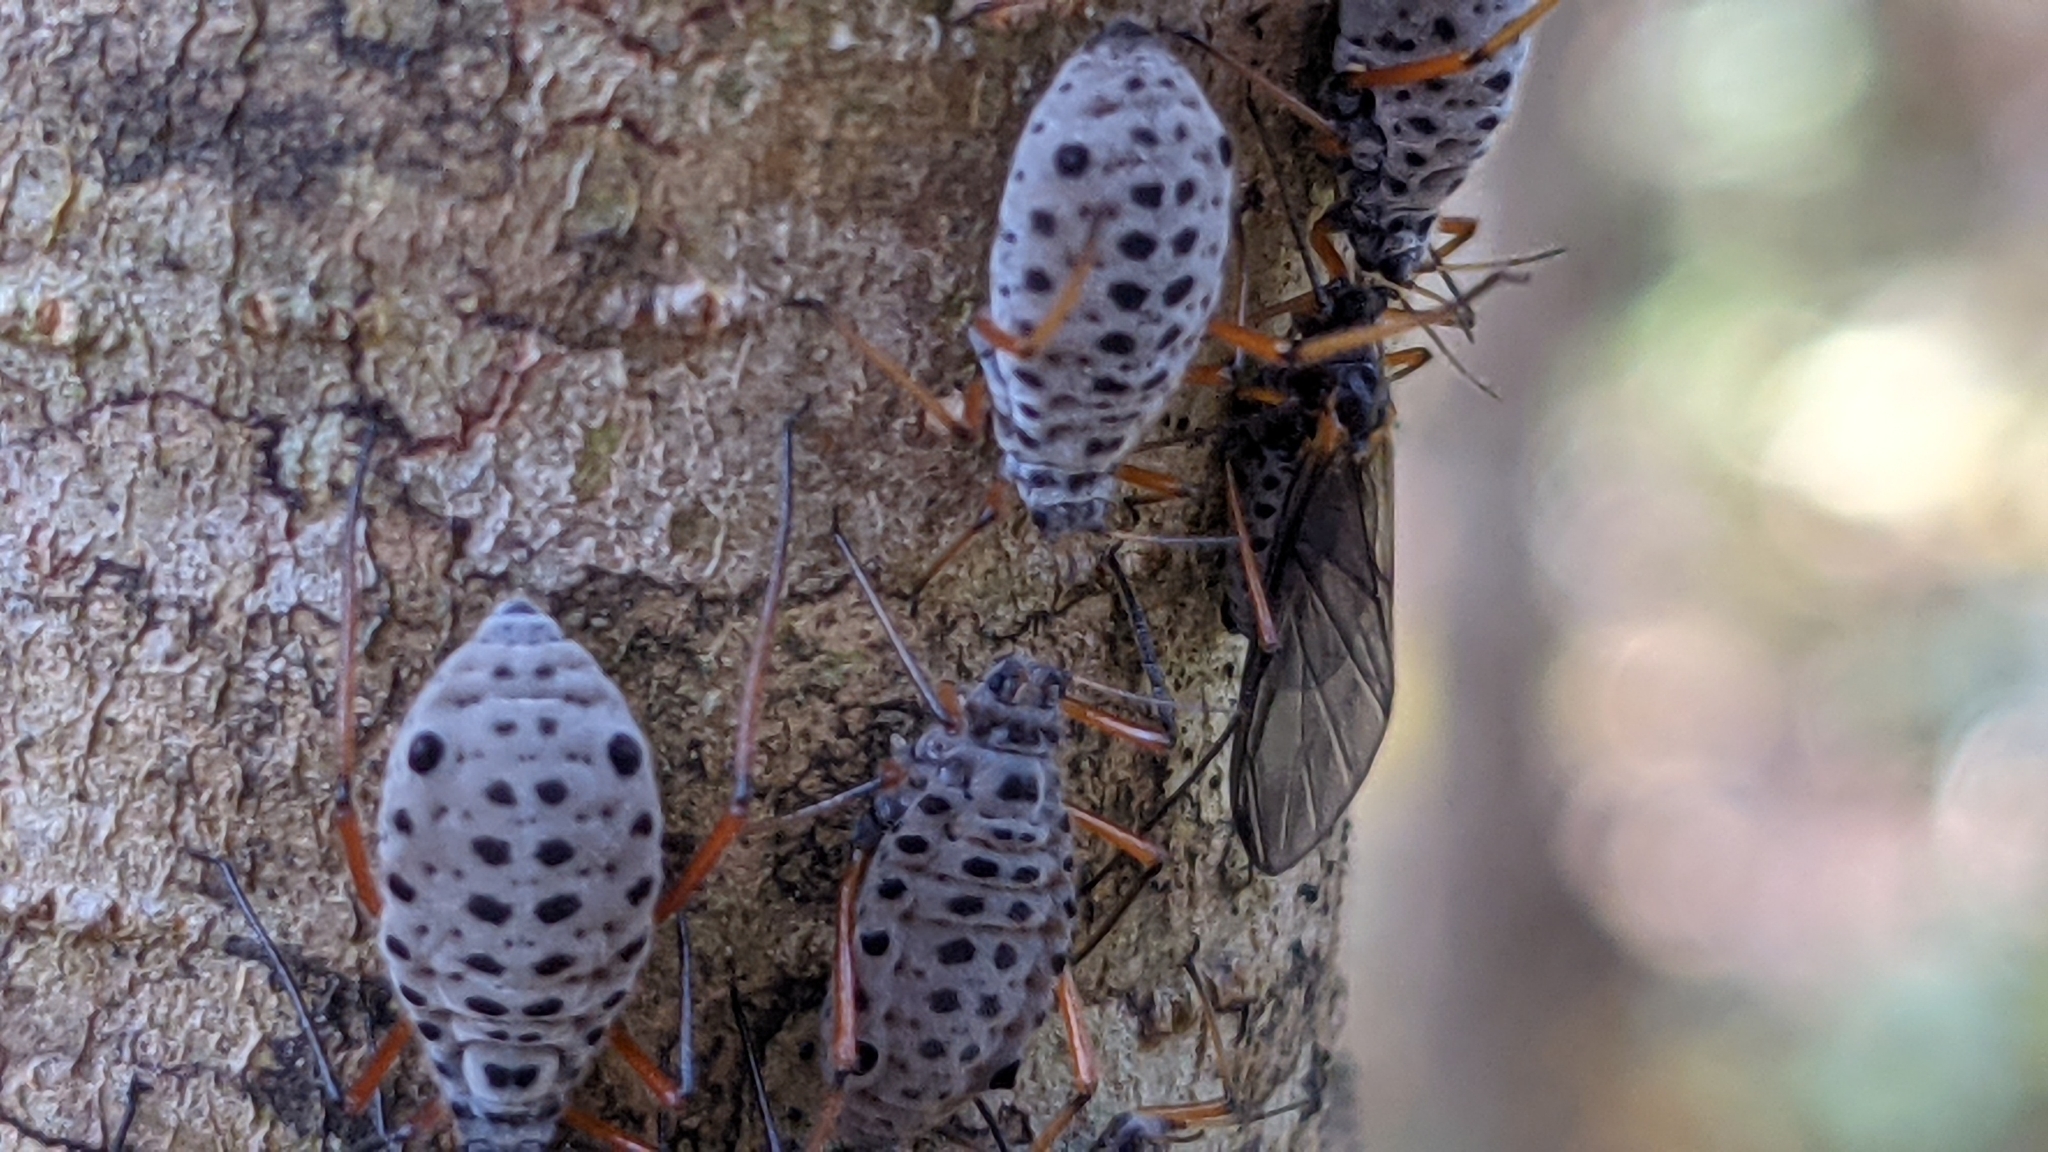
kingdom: Animalia
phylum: Arthropoda
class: Insecta
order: Hemiptera
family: Aphididae
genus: Longistigma
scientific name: Longistigma caryae
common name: Giant bark aphid
